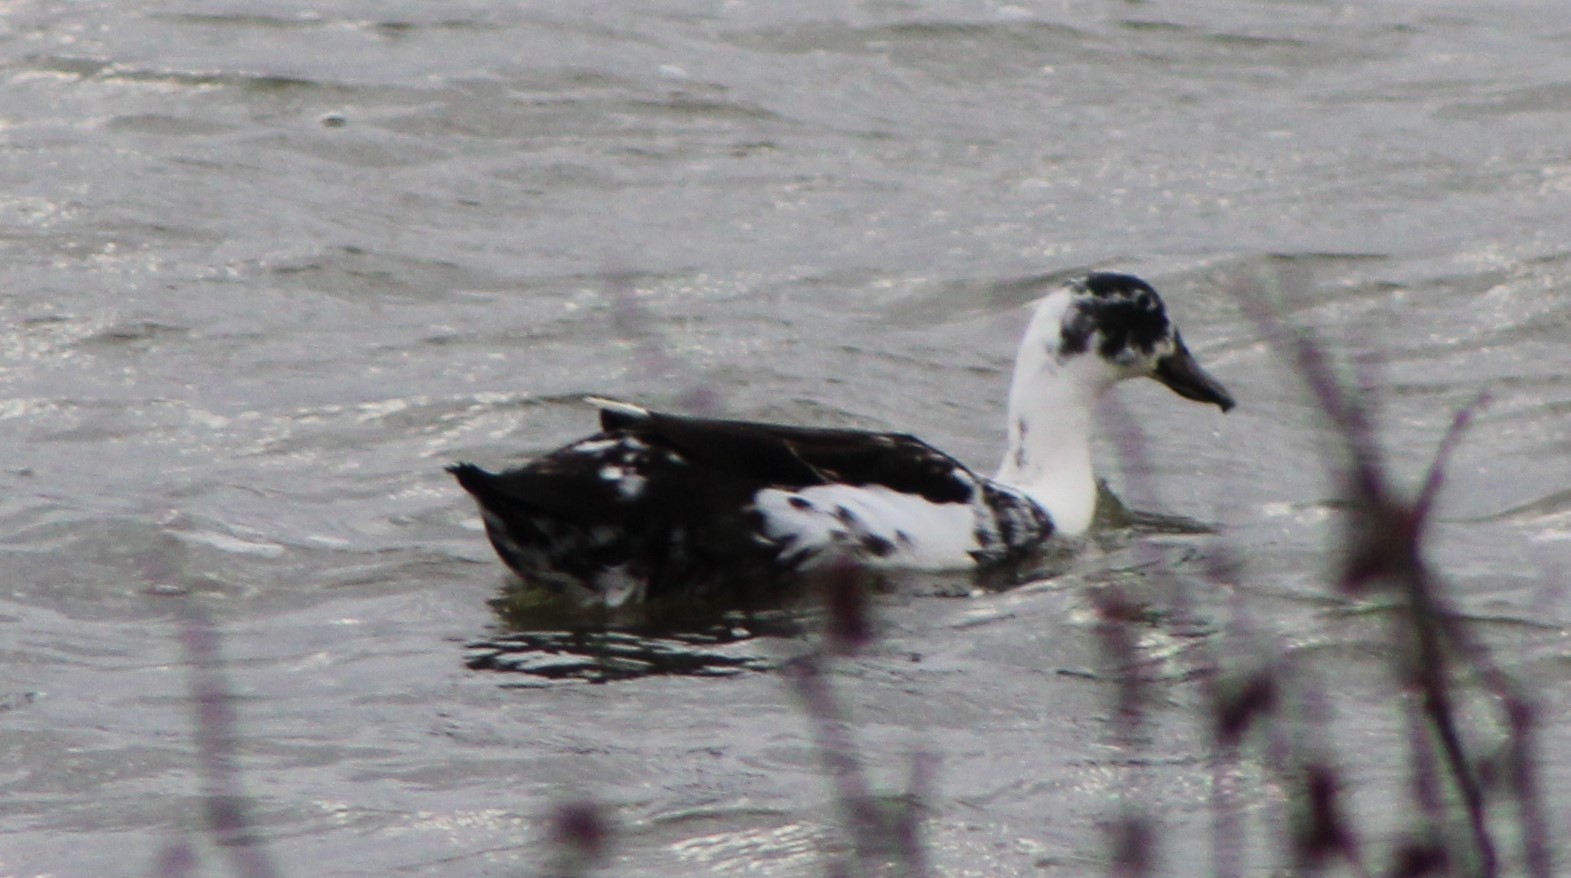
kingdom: Animalia
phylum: Chordata
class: Aves
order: Anseriformes
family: Anatidae
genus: Anas
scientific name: Anas platyrhynchos
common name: Mallard
